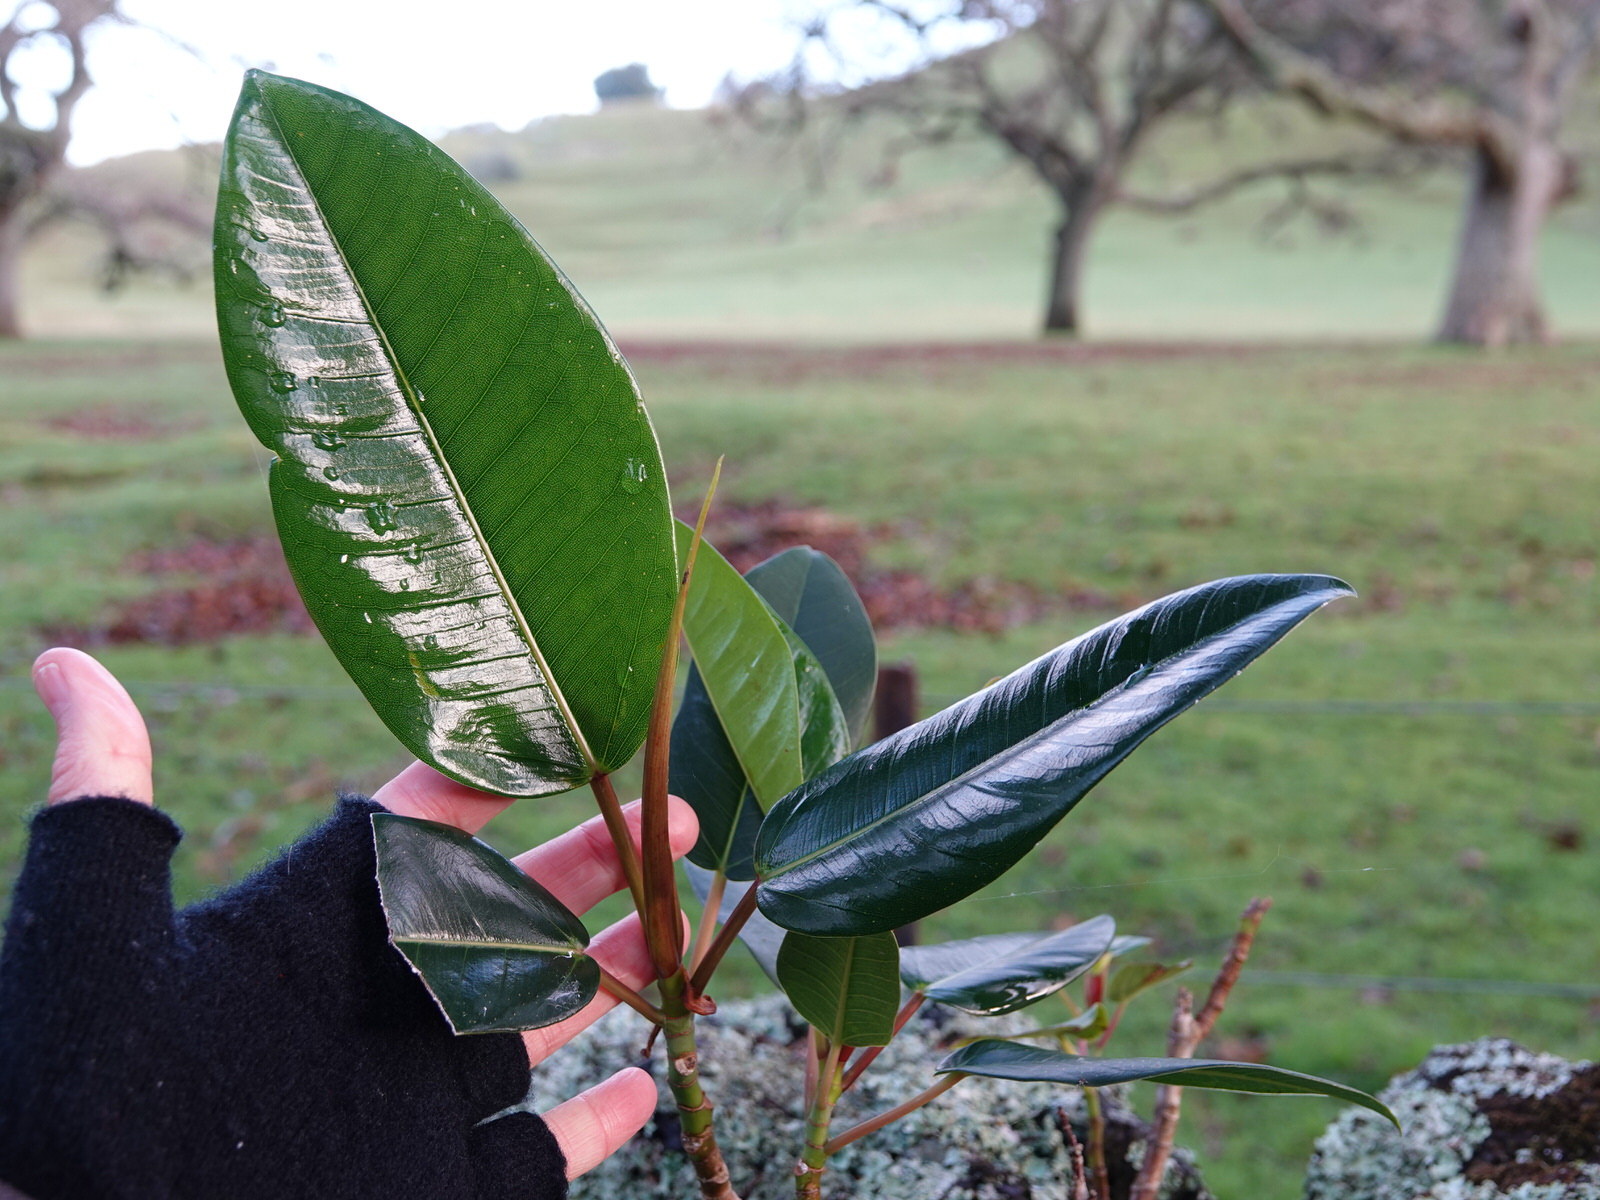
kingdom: Plantae
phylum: Tracheophyta
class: Magnoliopsida
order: Rosales
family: Moraceae
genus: Ficus
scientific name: Ficus macrophylla
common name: Moreton bay fig
